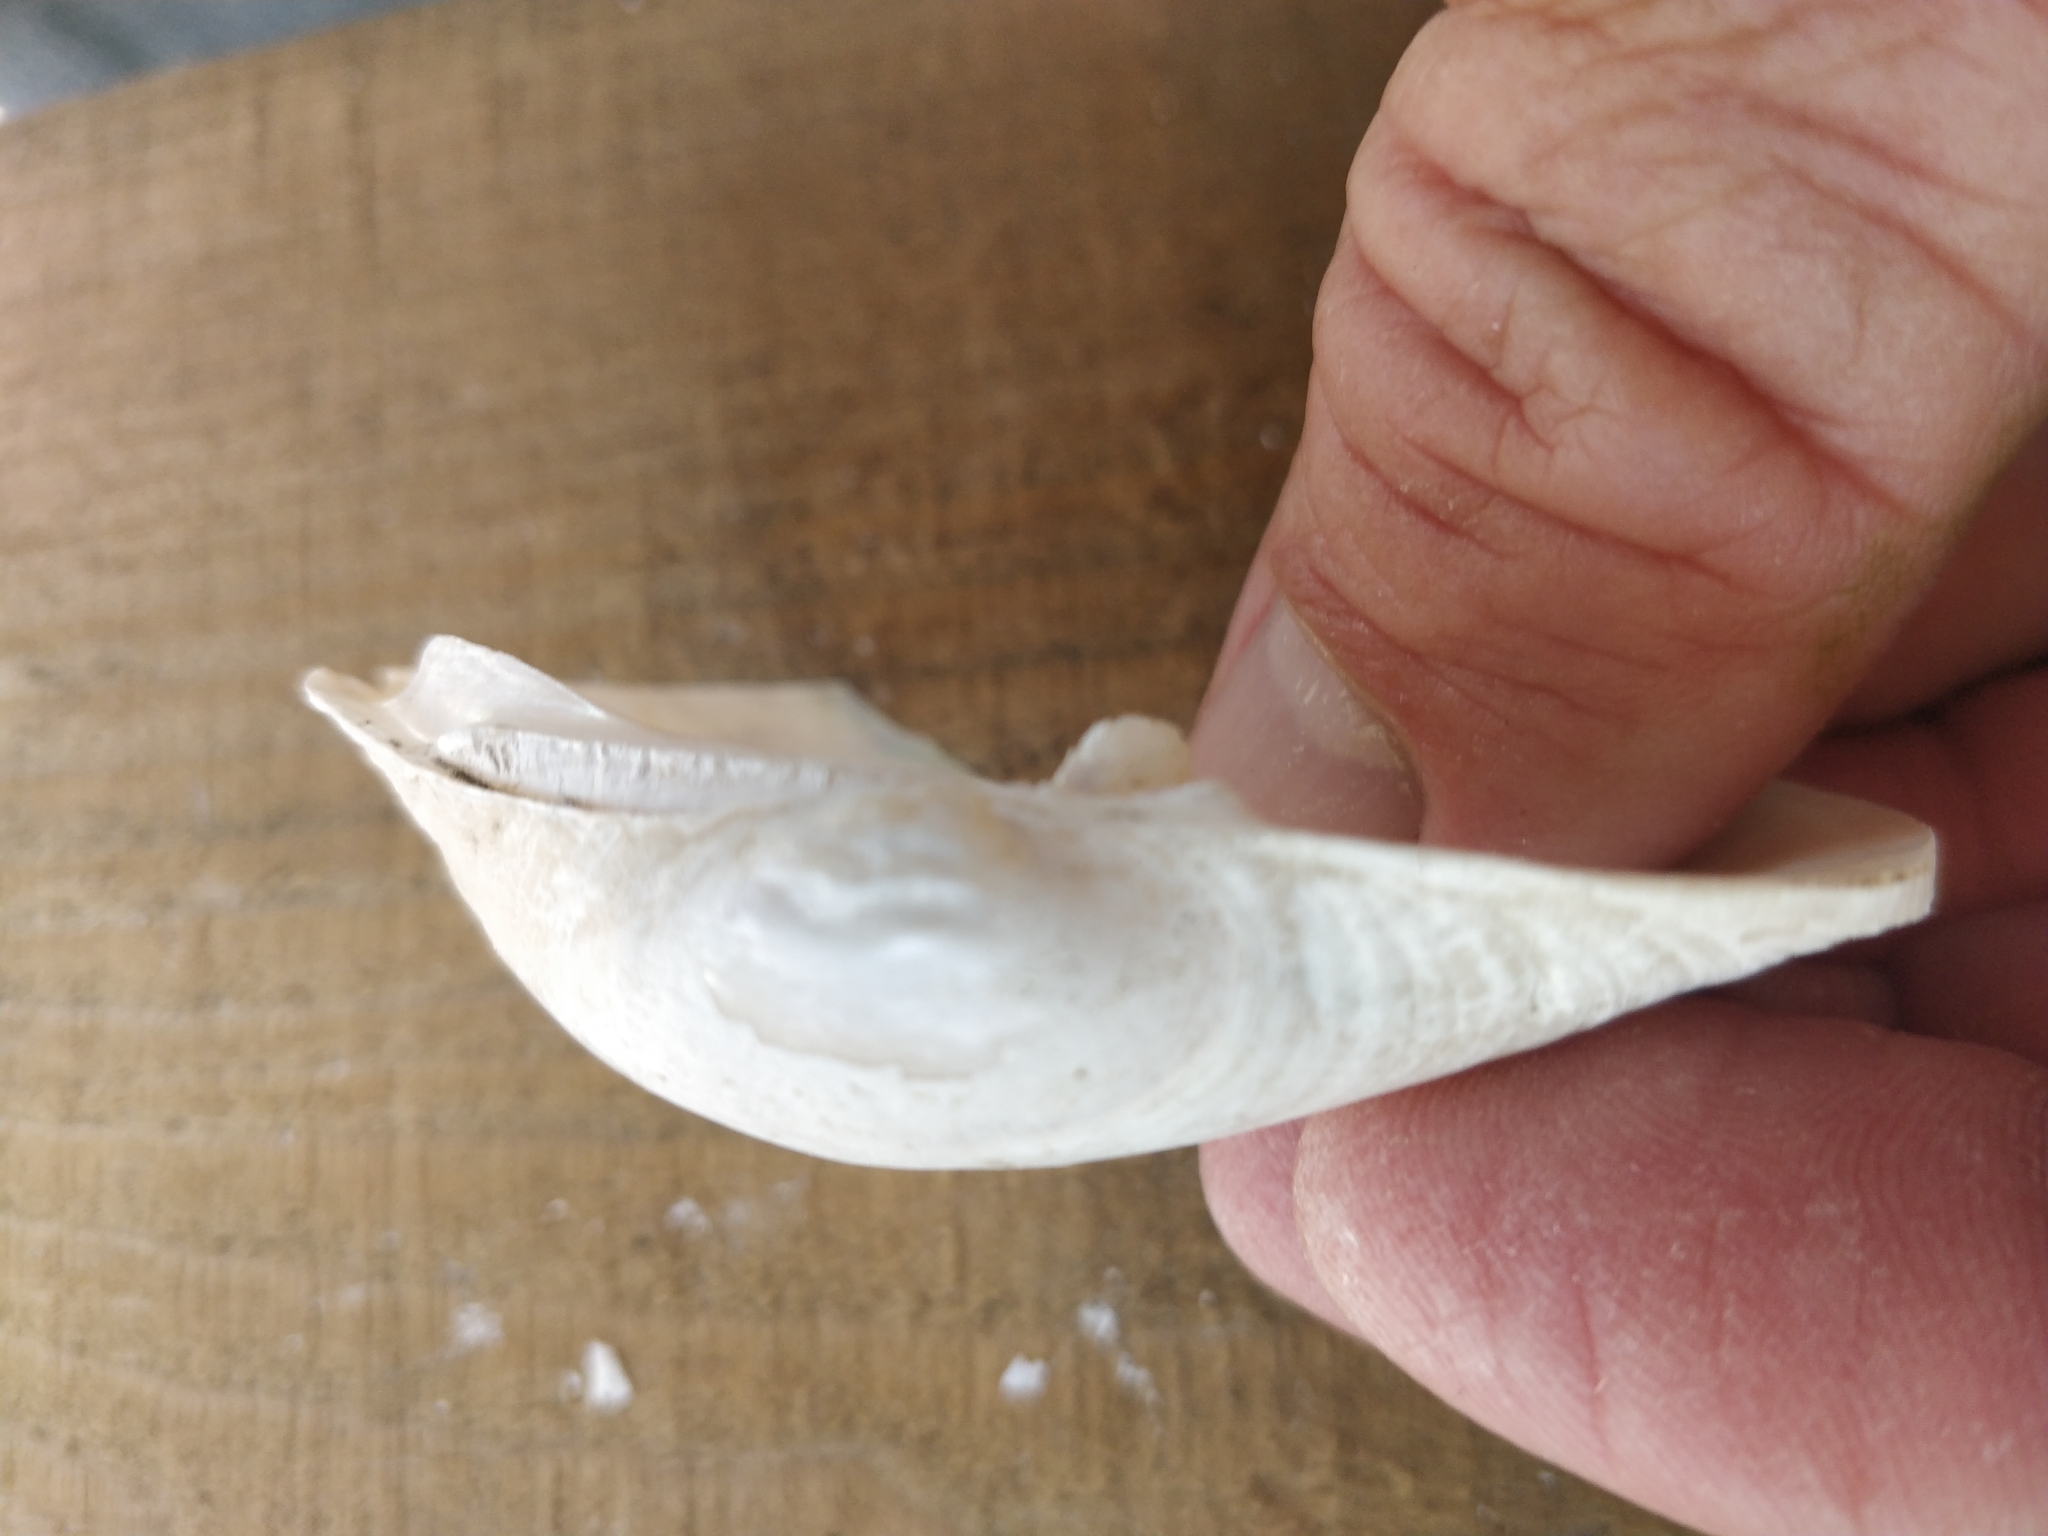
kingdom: Animalia
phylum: Mollusca
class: Bivalvia
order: Unionida
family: Unionidae
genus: Lampsilis
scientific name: Lampsilis cardium
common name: Plain pocketbook
